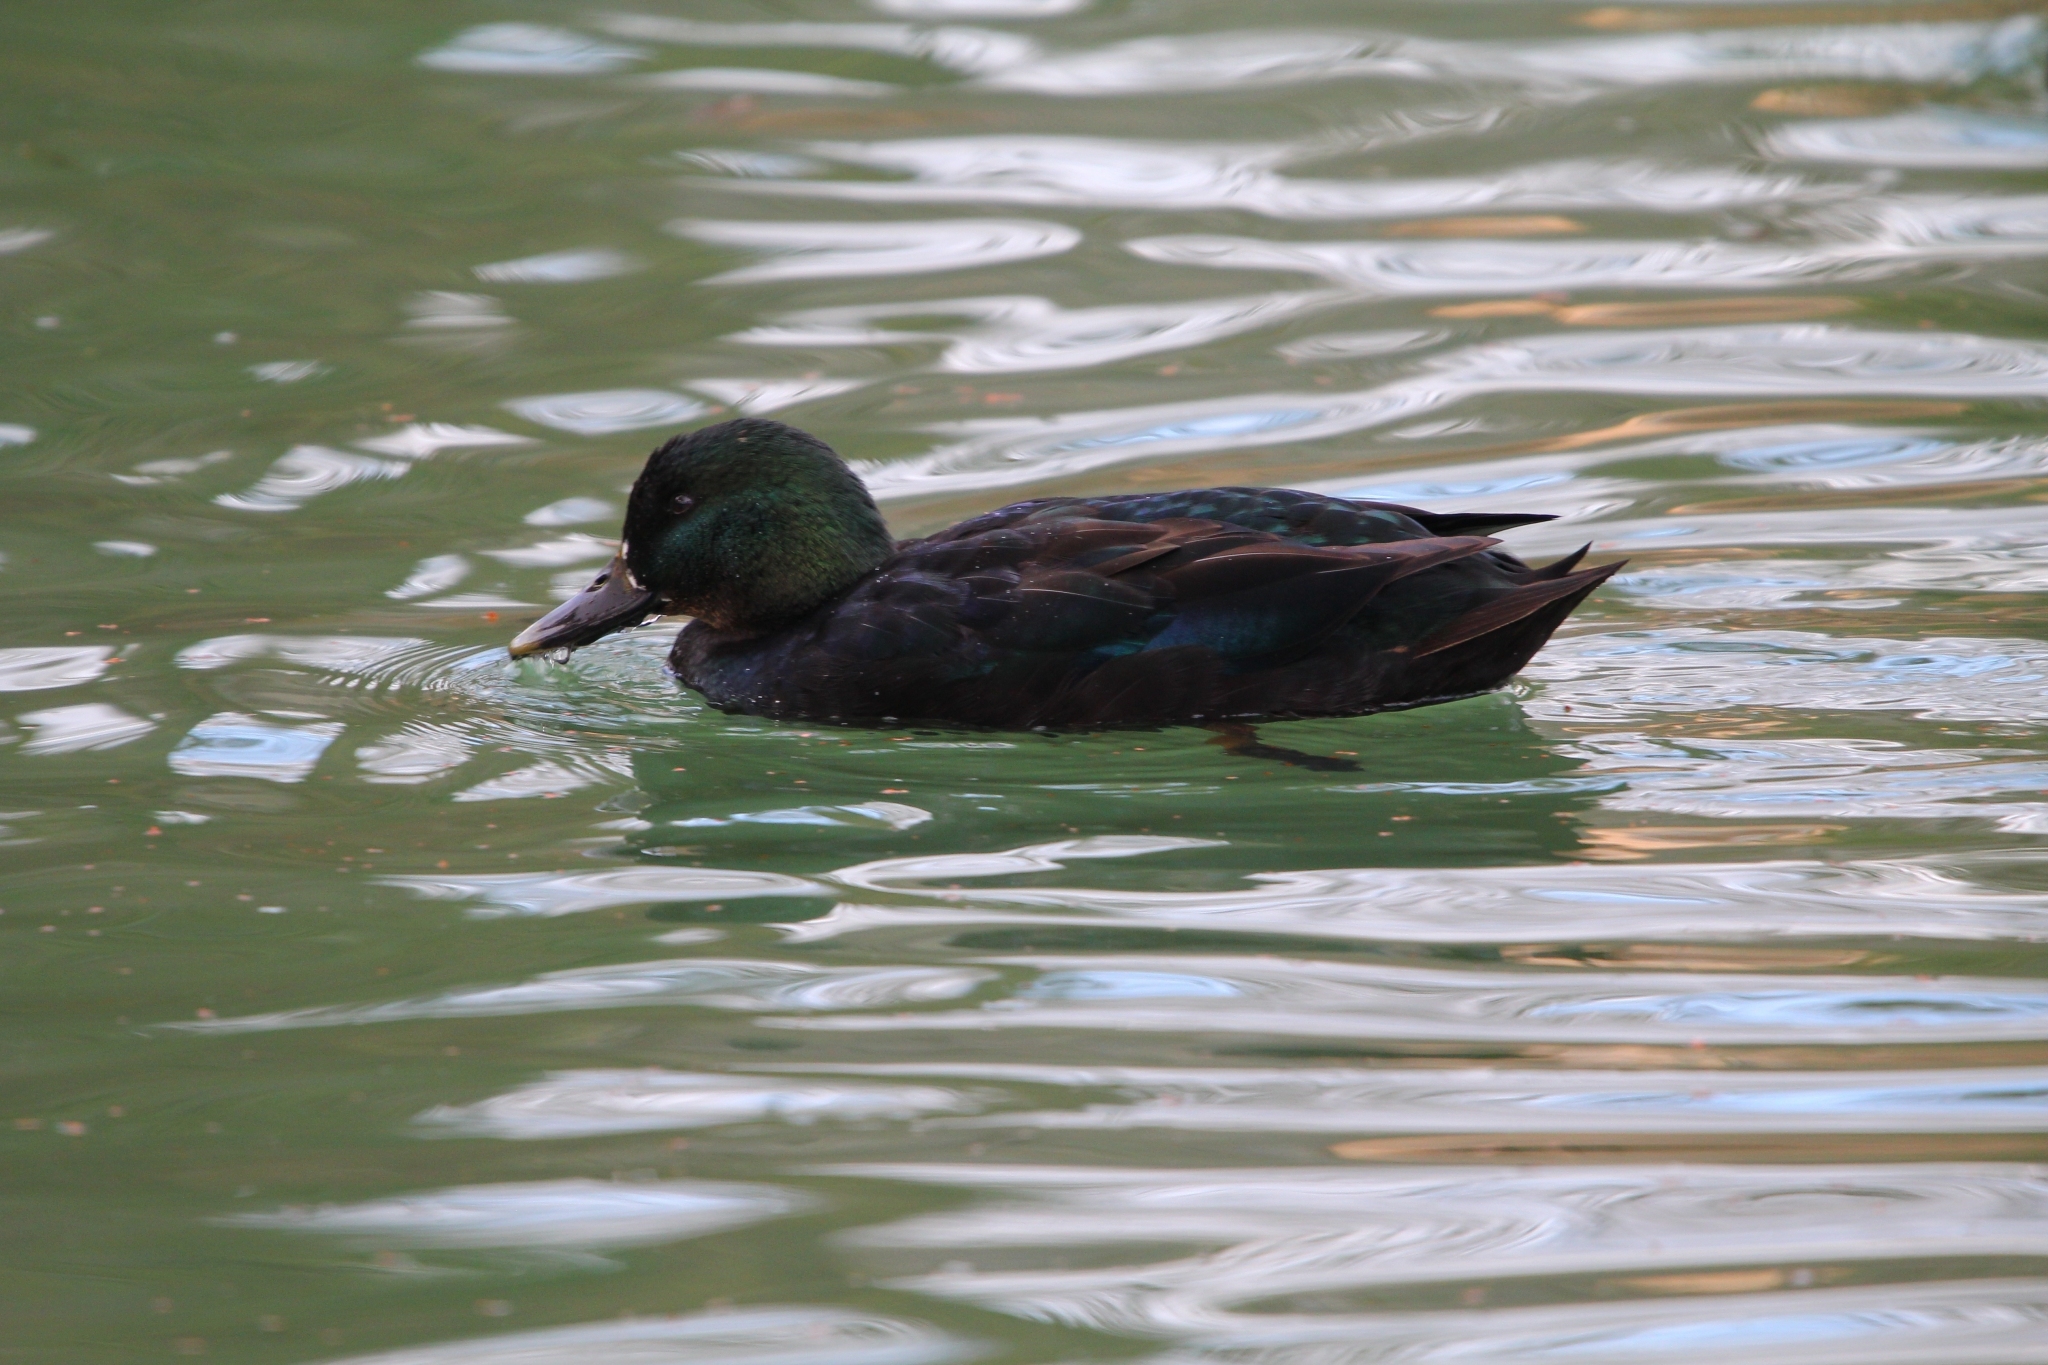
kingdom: Animalia
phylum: Chordata
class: Aves
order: Anseriformes
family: Anatidae
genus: Anas
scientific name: Anas platyrhynchos
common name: Mallard
